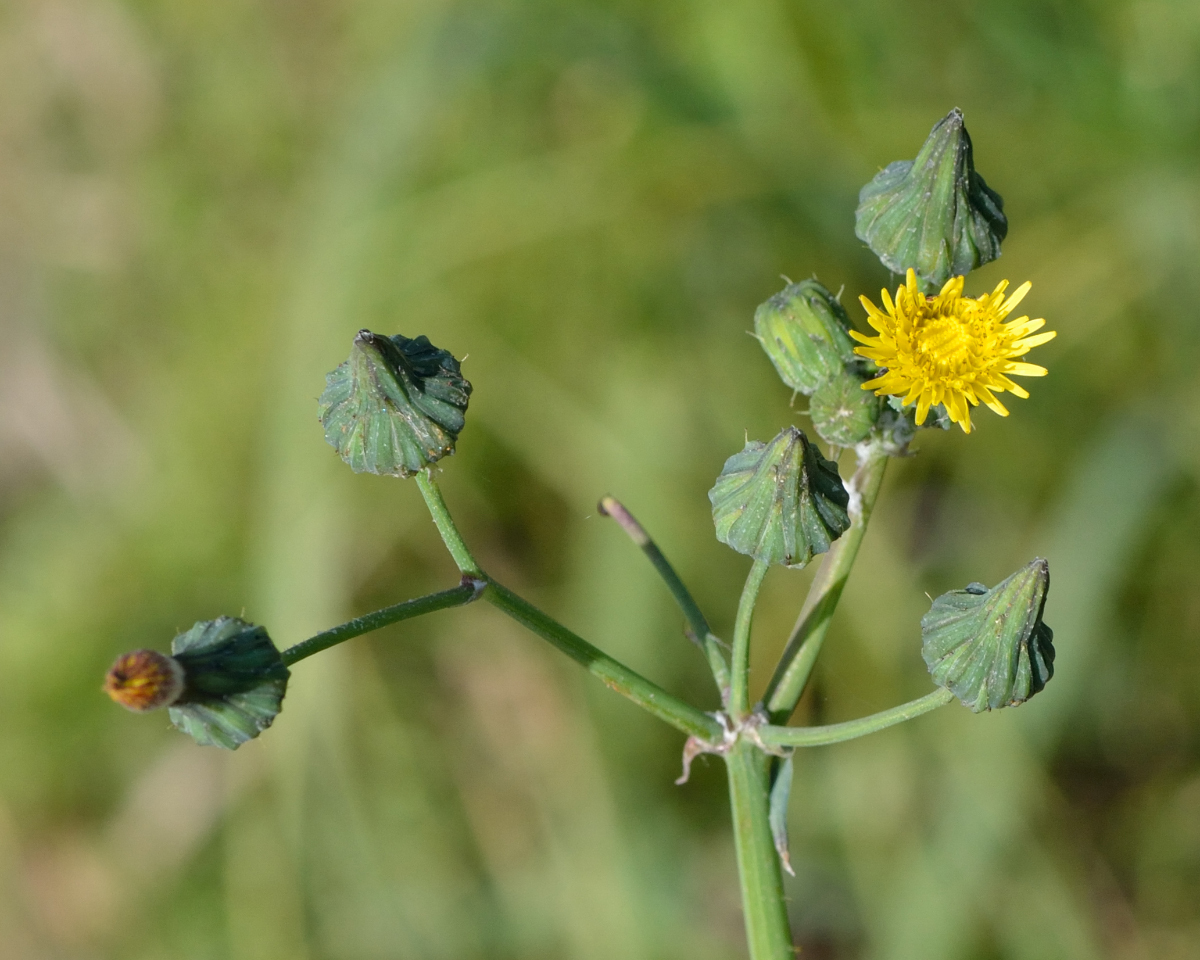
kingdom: Plantae
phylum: Tracheophyta
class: Magnoliopsida
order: Asterales
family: Asteraceae
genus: Sonchus
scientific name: Sonchus asper
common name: Prickly sow-thistle
